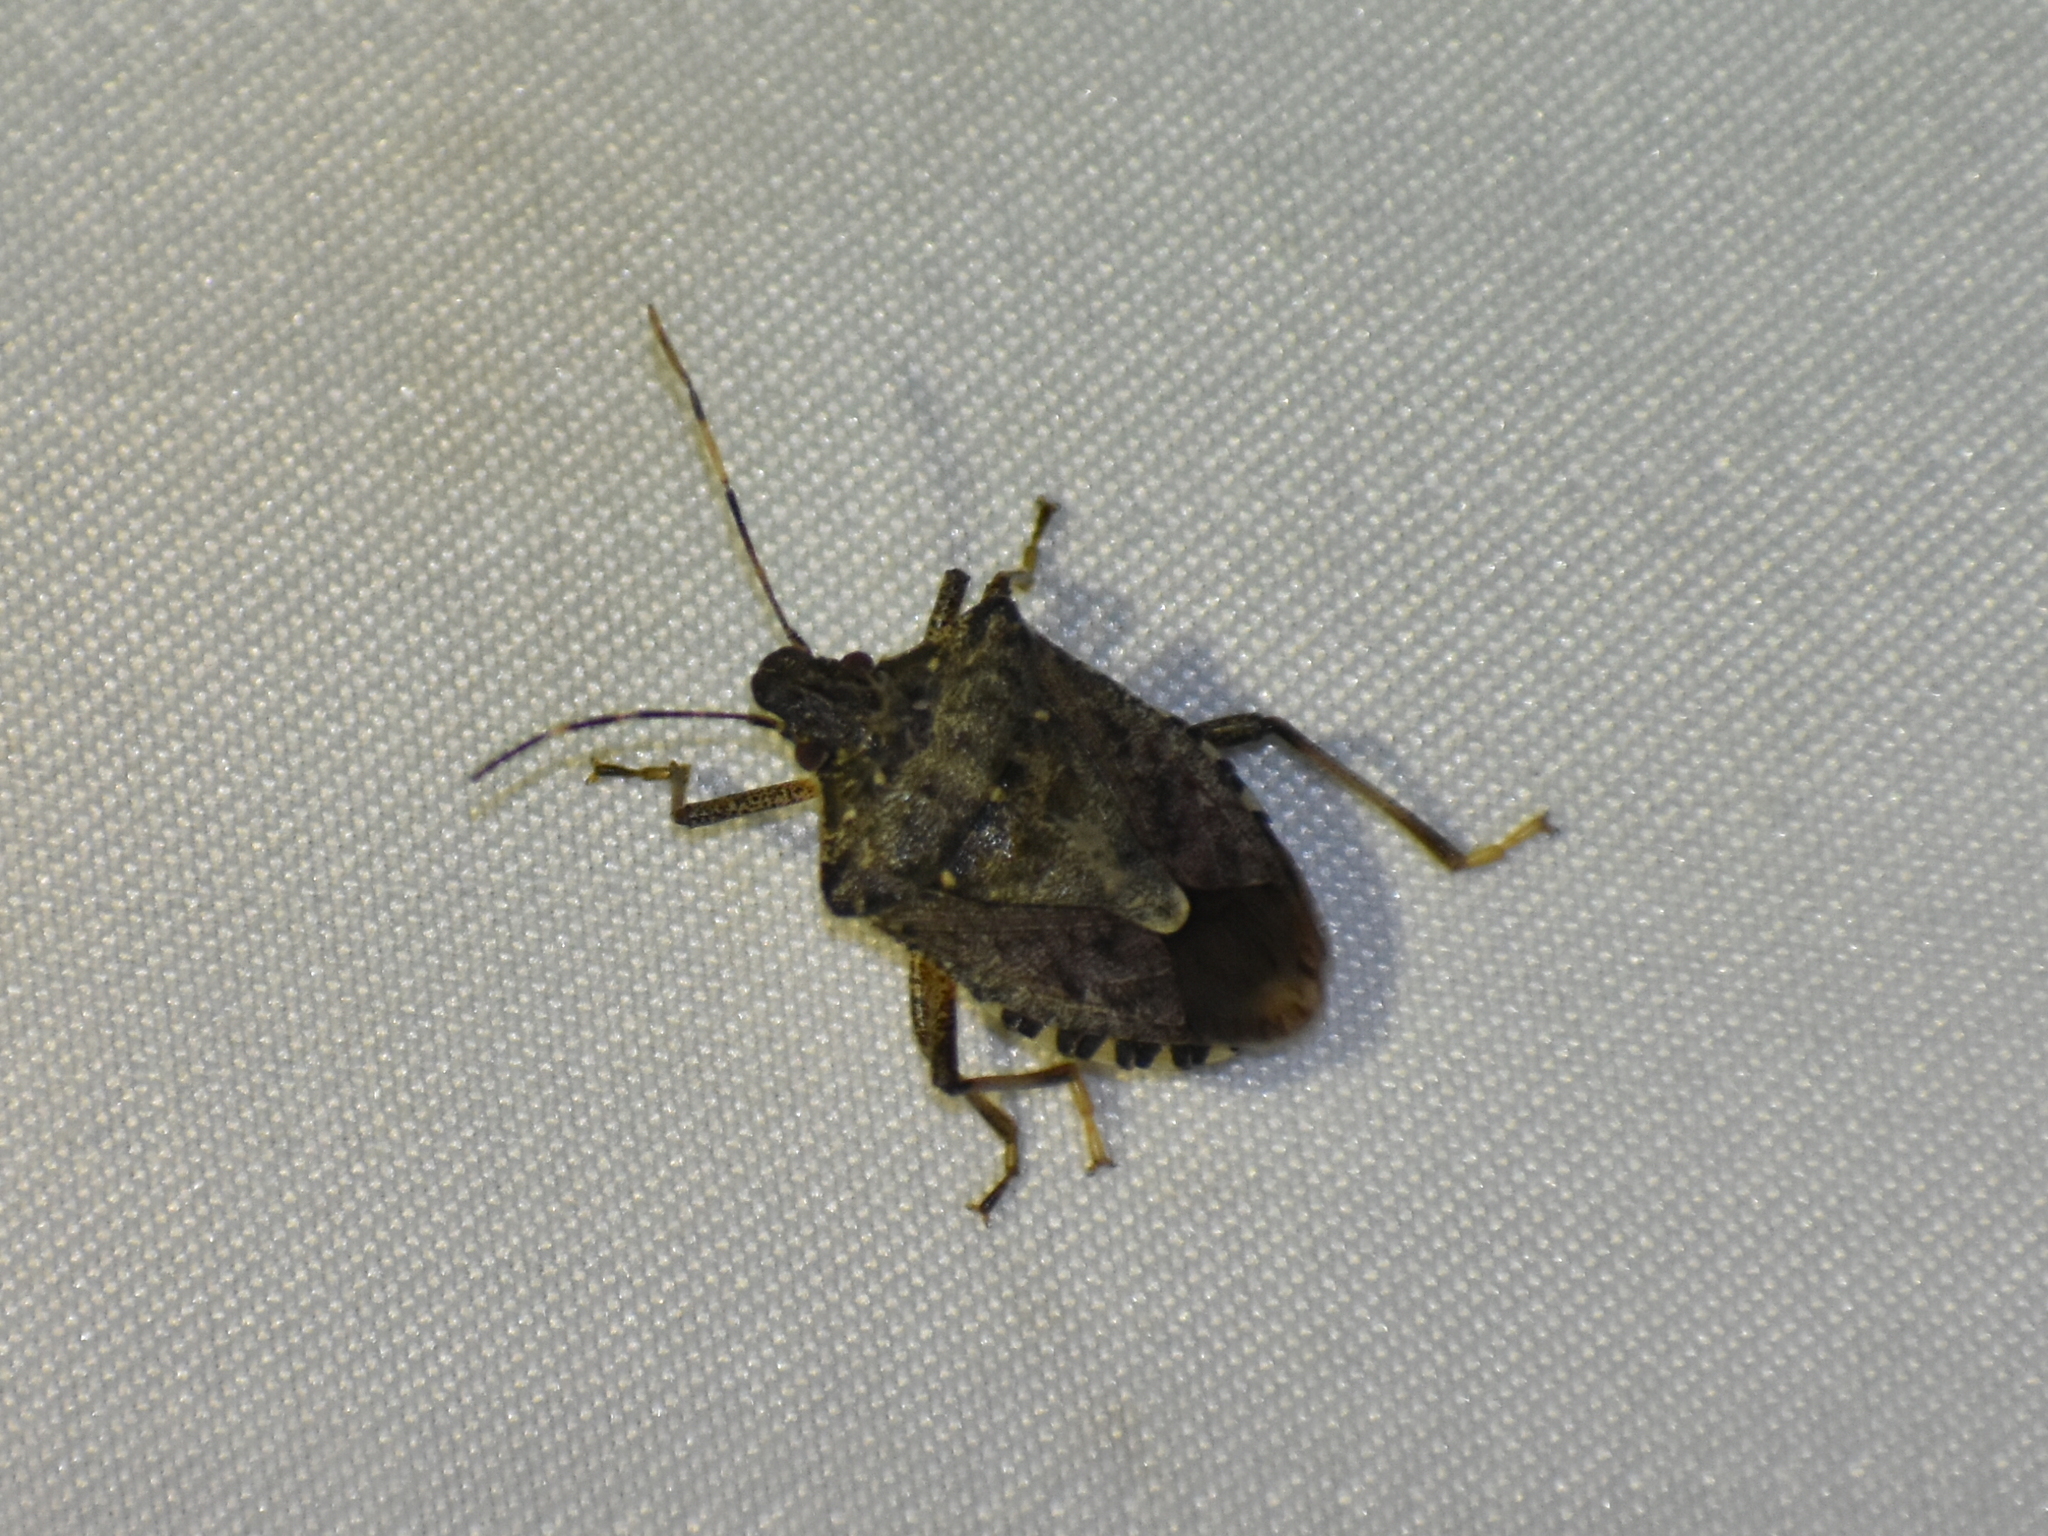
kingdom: Animalia
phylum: Arthropoda
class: Insecta
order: Hemiptera
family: Pentatomidae
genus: Halyomorpha
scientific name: Halyomorpha halys
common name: Brown marmorated stink bug
